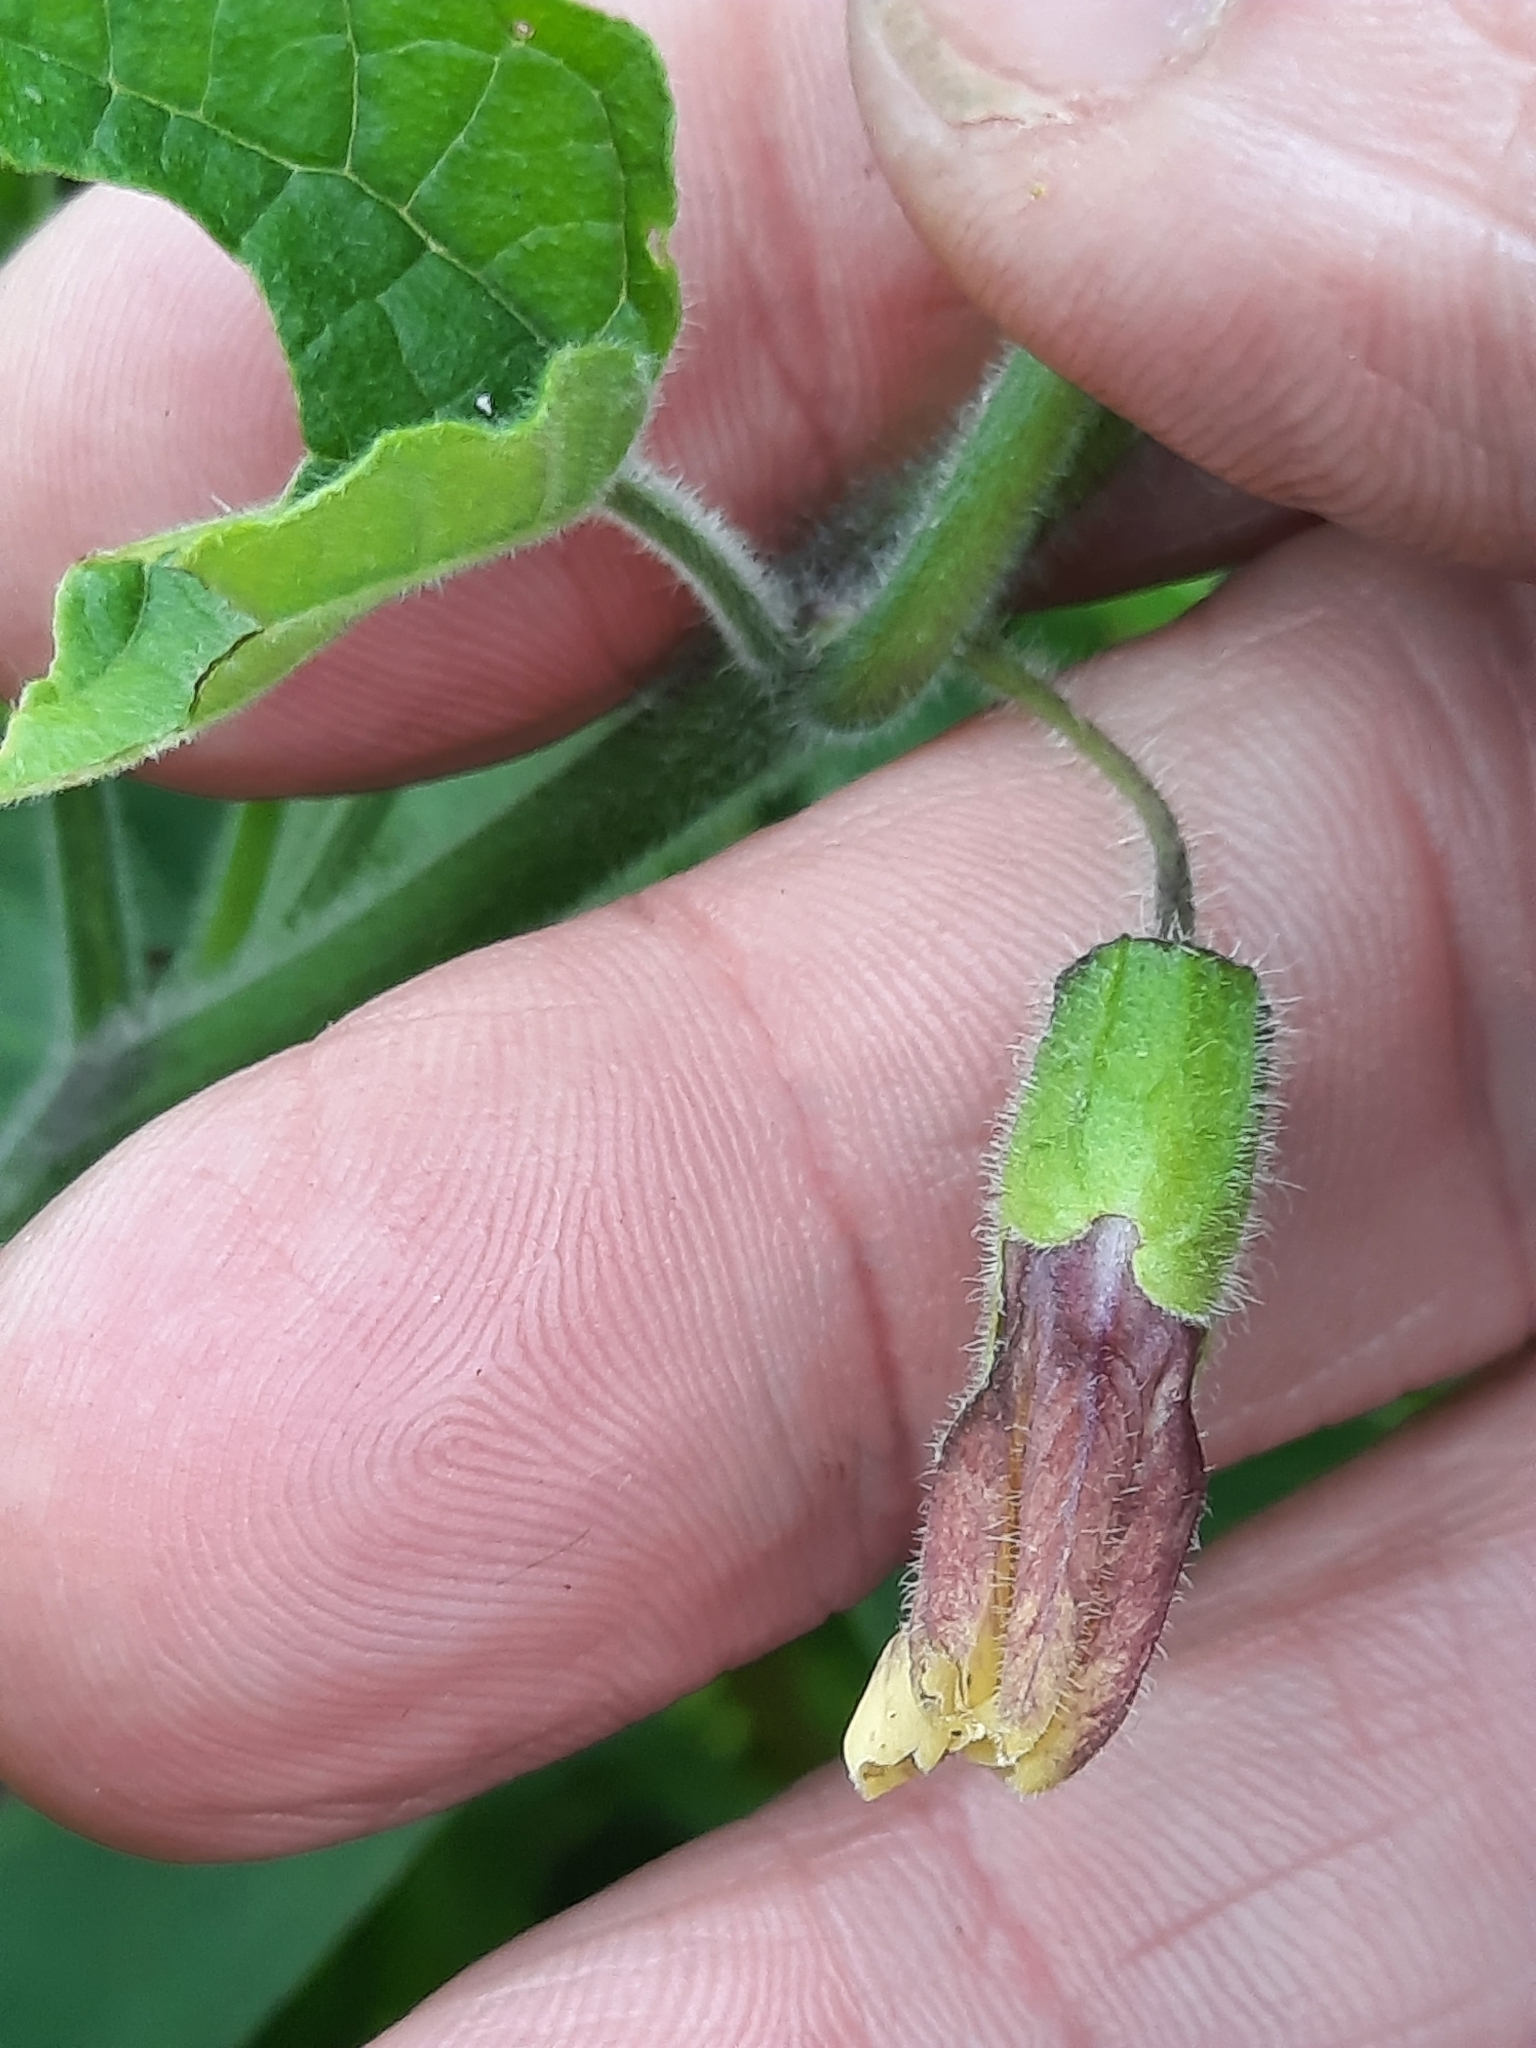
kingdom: Plantae
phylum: Tracheophyta
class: Magnoliopsida
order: Solanales
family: Solanaceae
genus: Physalis
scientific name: Physalis heterophylla
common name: Clammy ground-cherry
